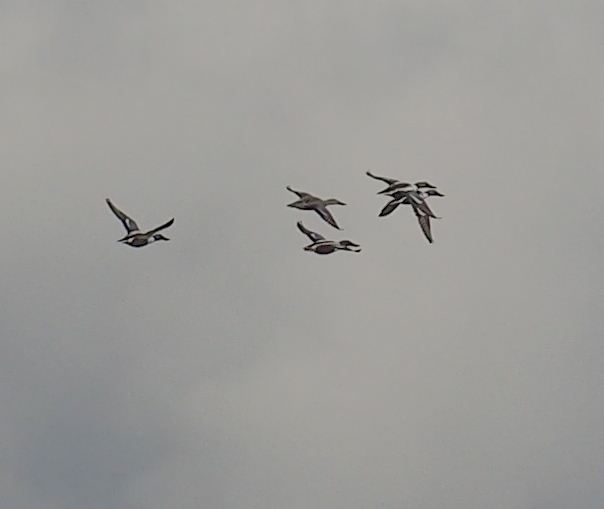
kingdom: Animalia
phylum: Chordata
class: Aves
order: Anseriformes
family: Anatidae
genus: Spatula
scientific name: Spatula clypeata
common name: Northern shoveler
